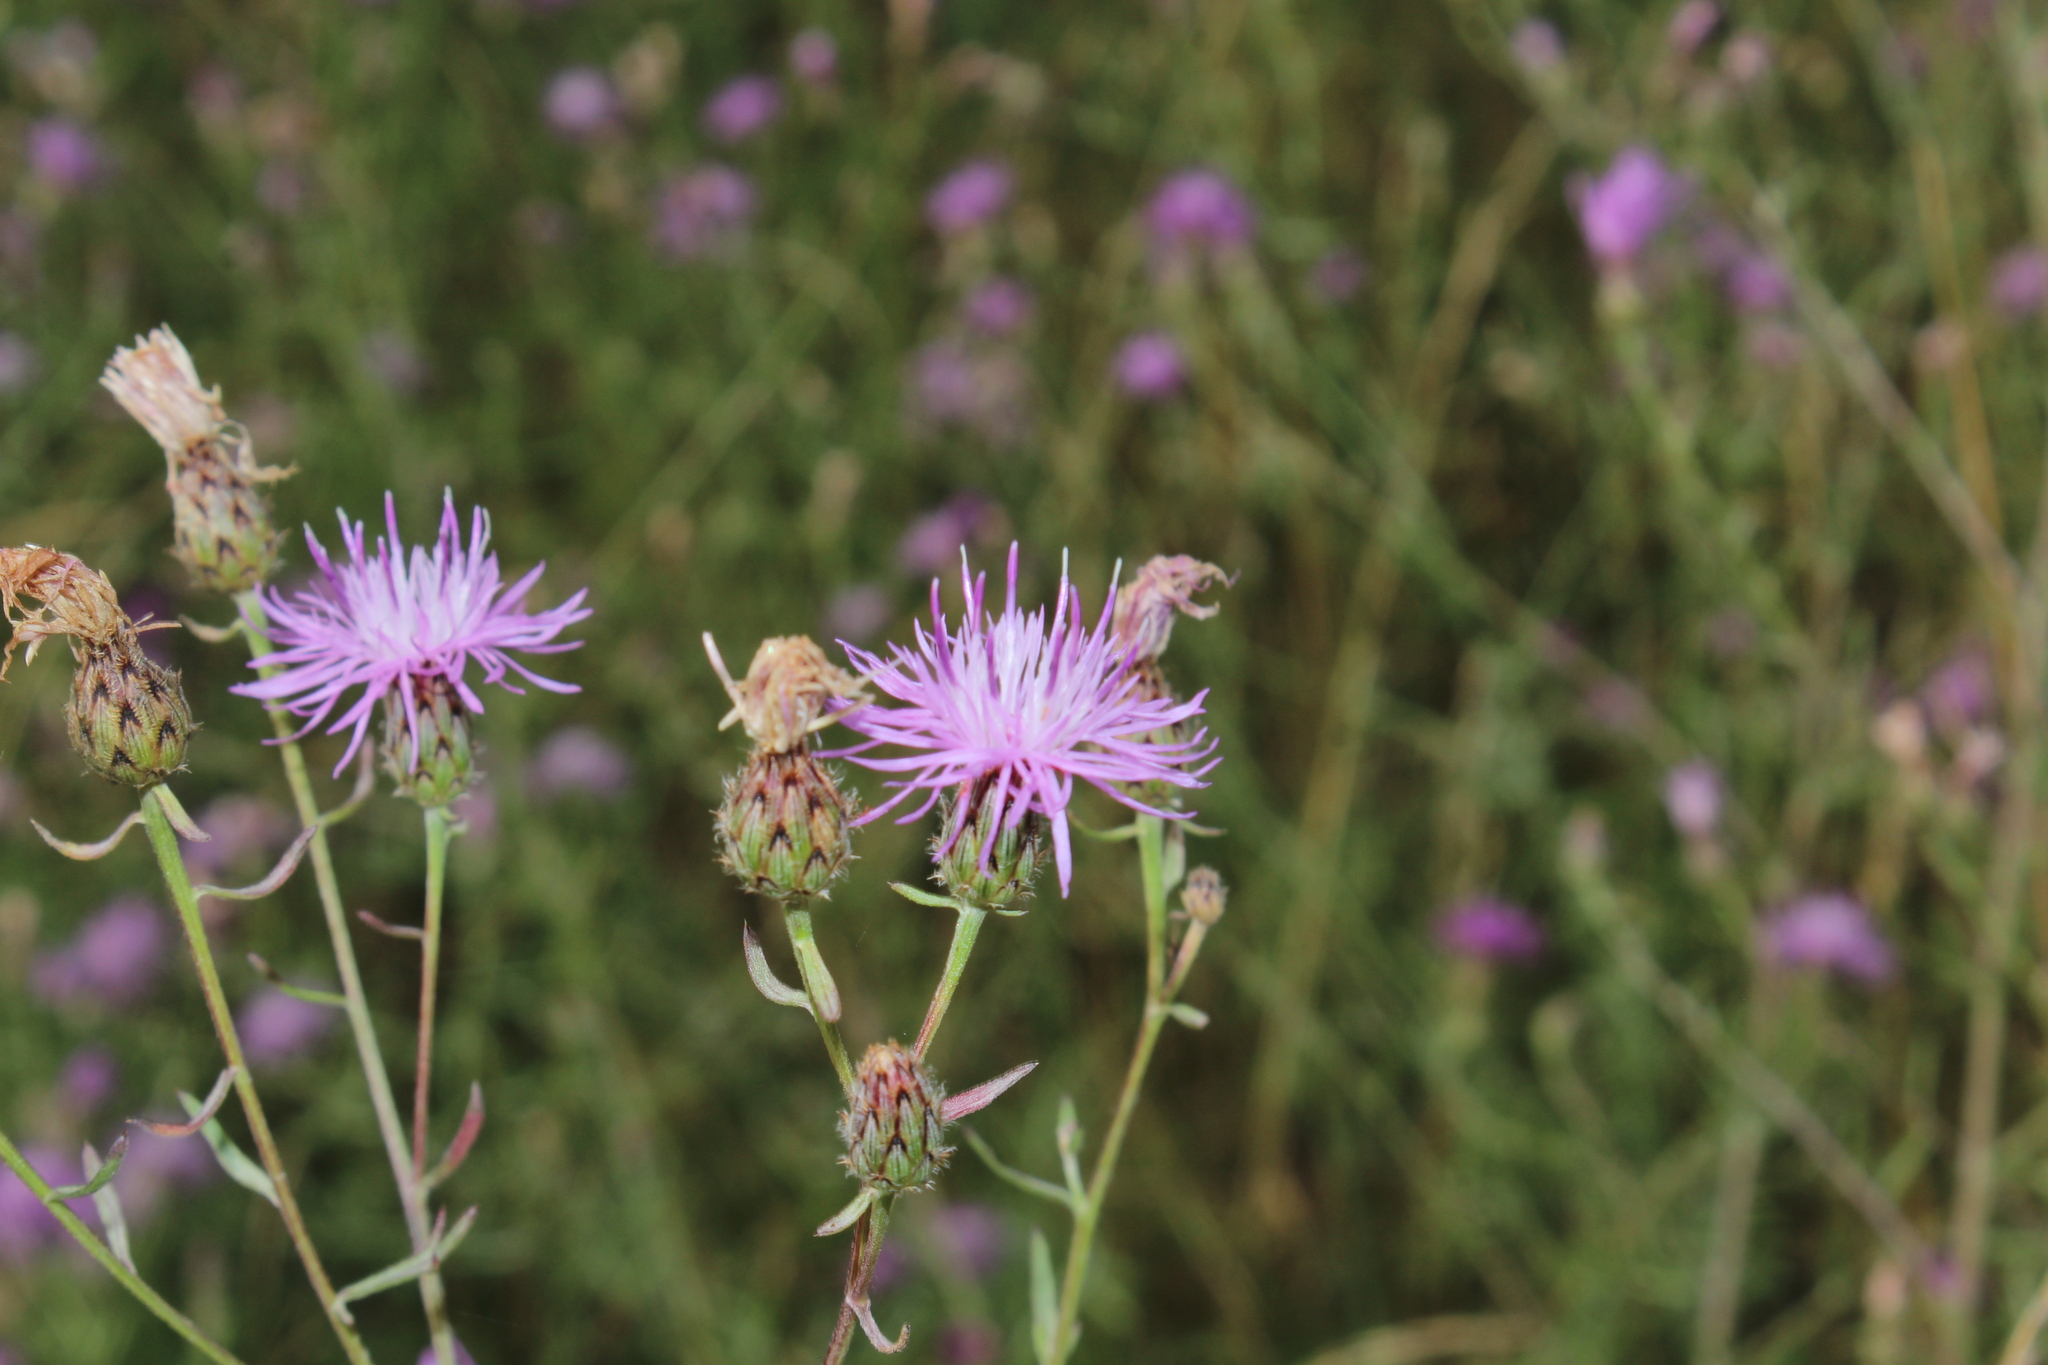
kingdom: Plantae
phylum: Tracheophyta
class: Magnoliopsida
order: Asterales
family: Asteraceae
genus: Centaurea
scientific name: Centaurea stoebe
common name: Spotted knapweed
